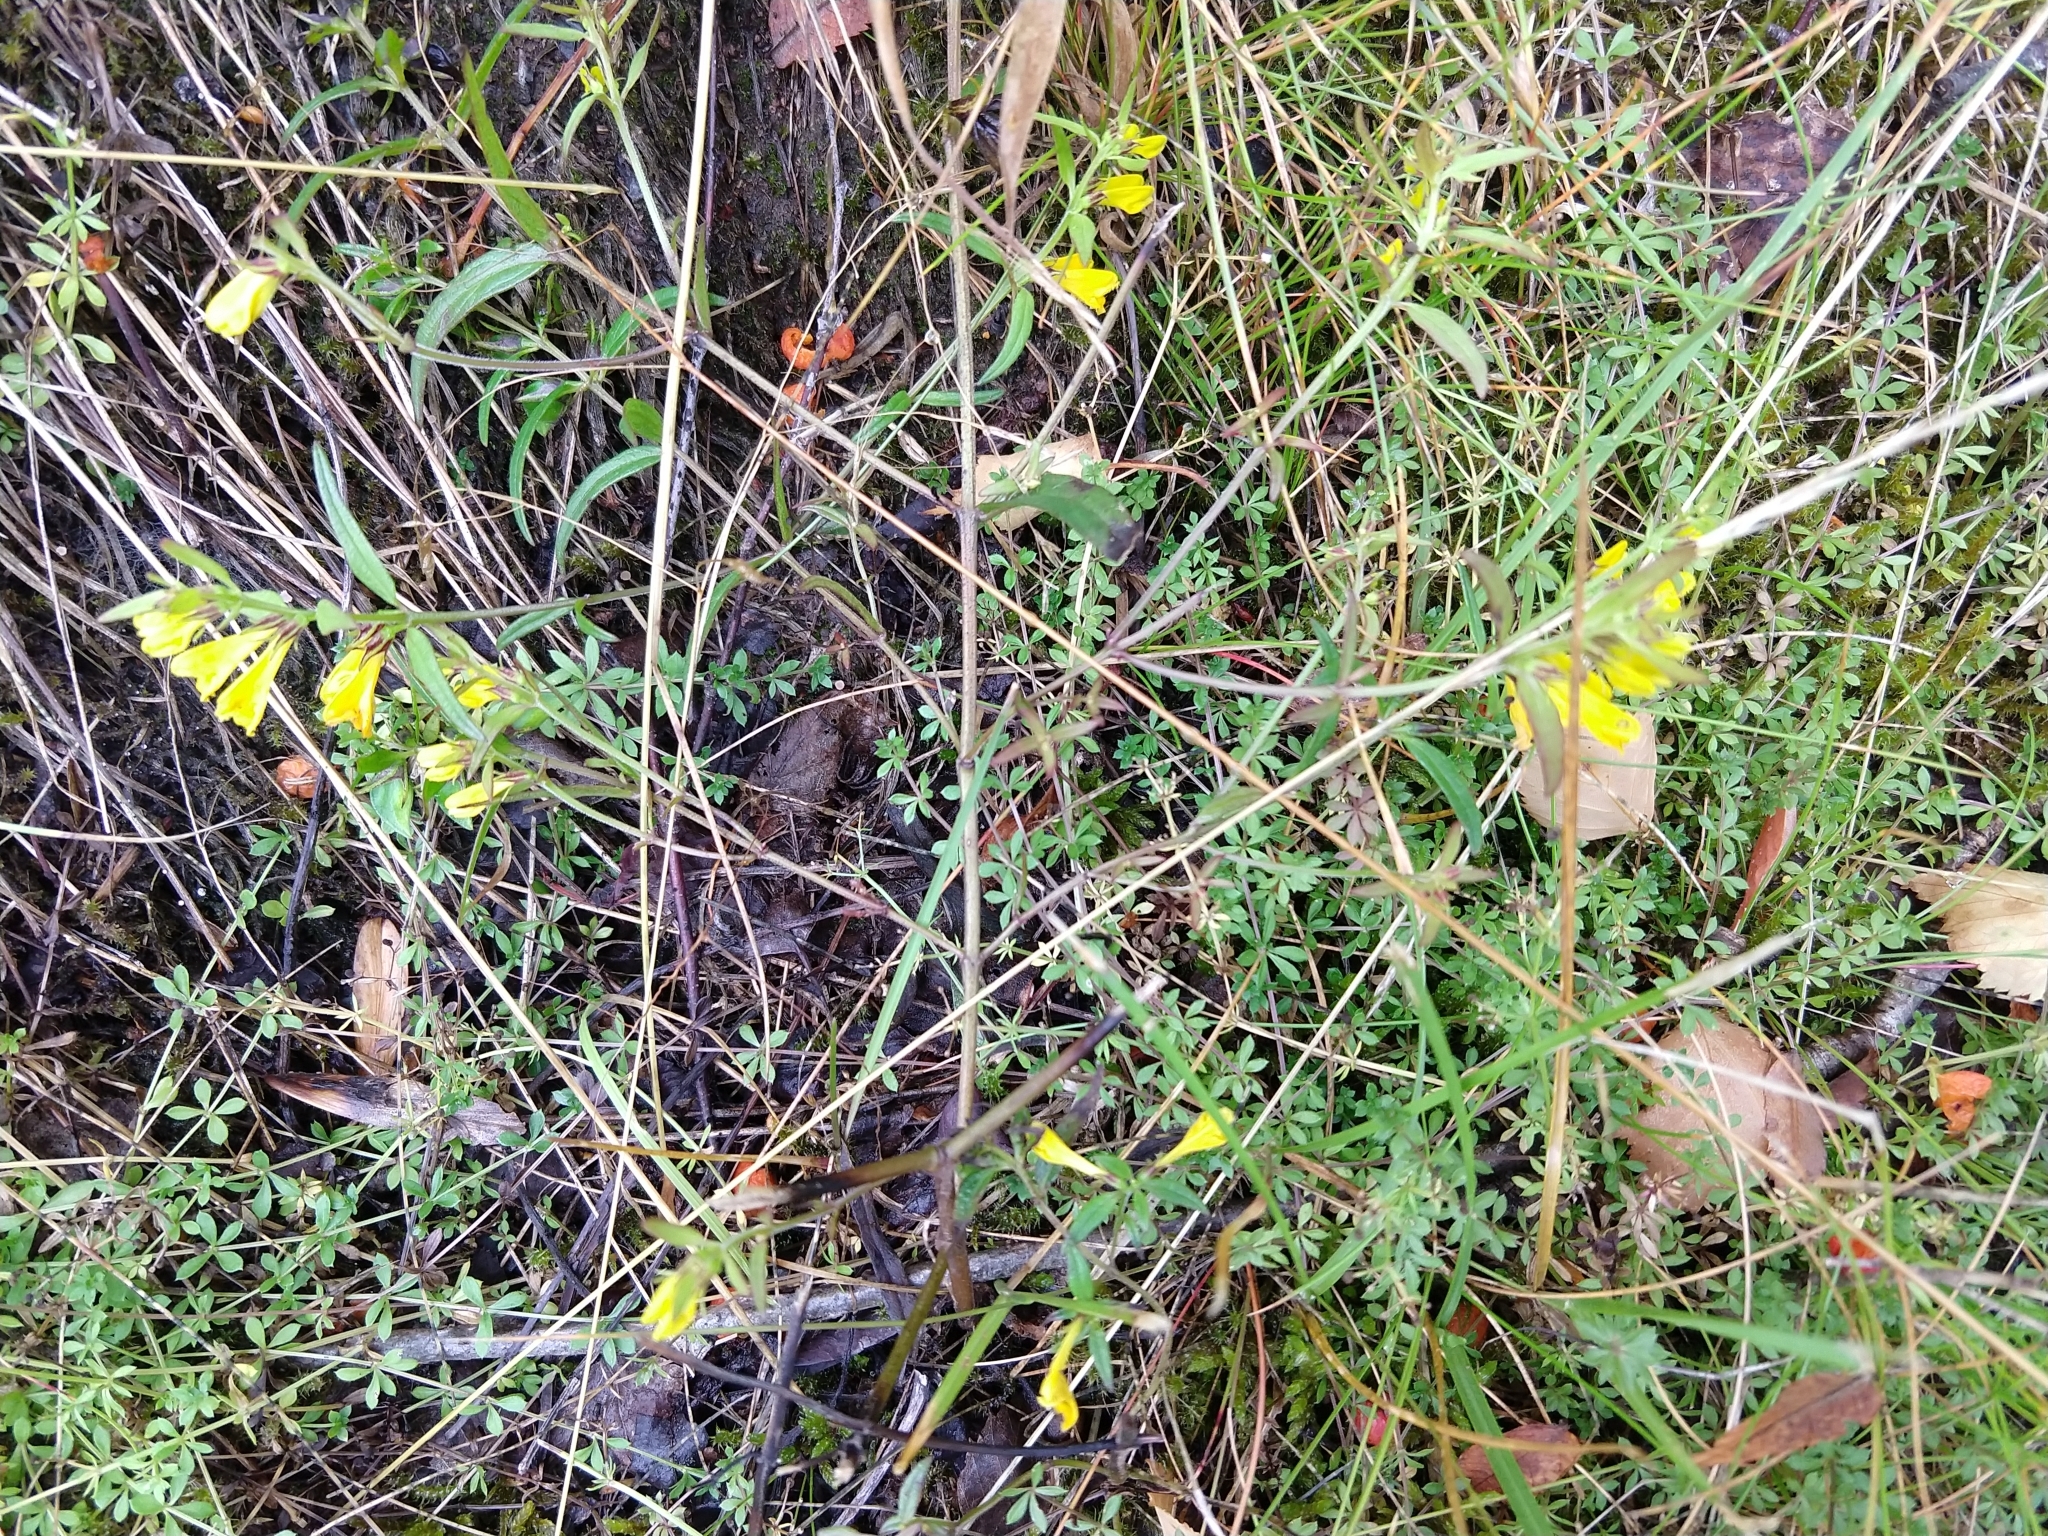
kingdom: Plantae
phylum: Tracheophyta
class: Magnoliopsida
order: Lamiales
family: Orobanchaceae
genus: Melampyrum
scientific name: Melampyrum pratense
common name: Common cow-wheat
